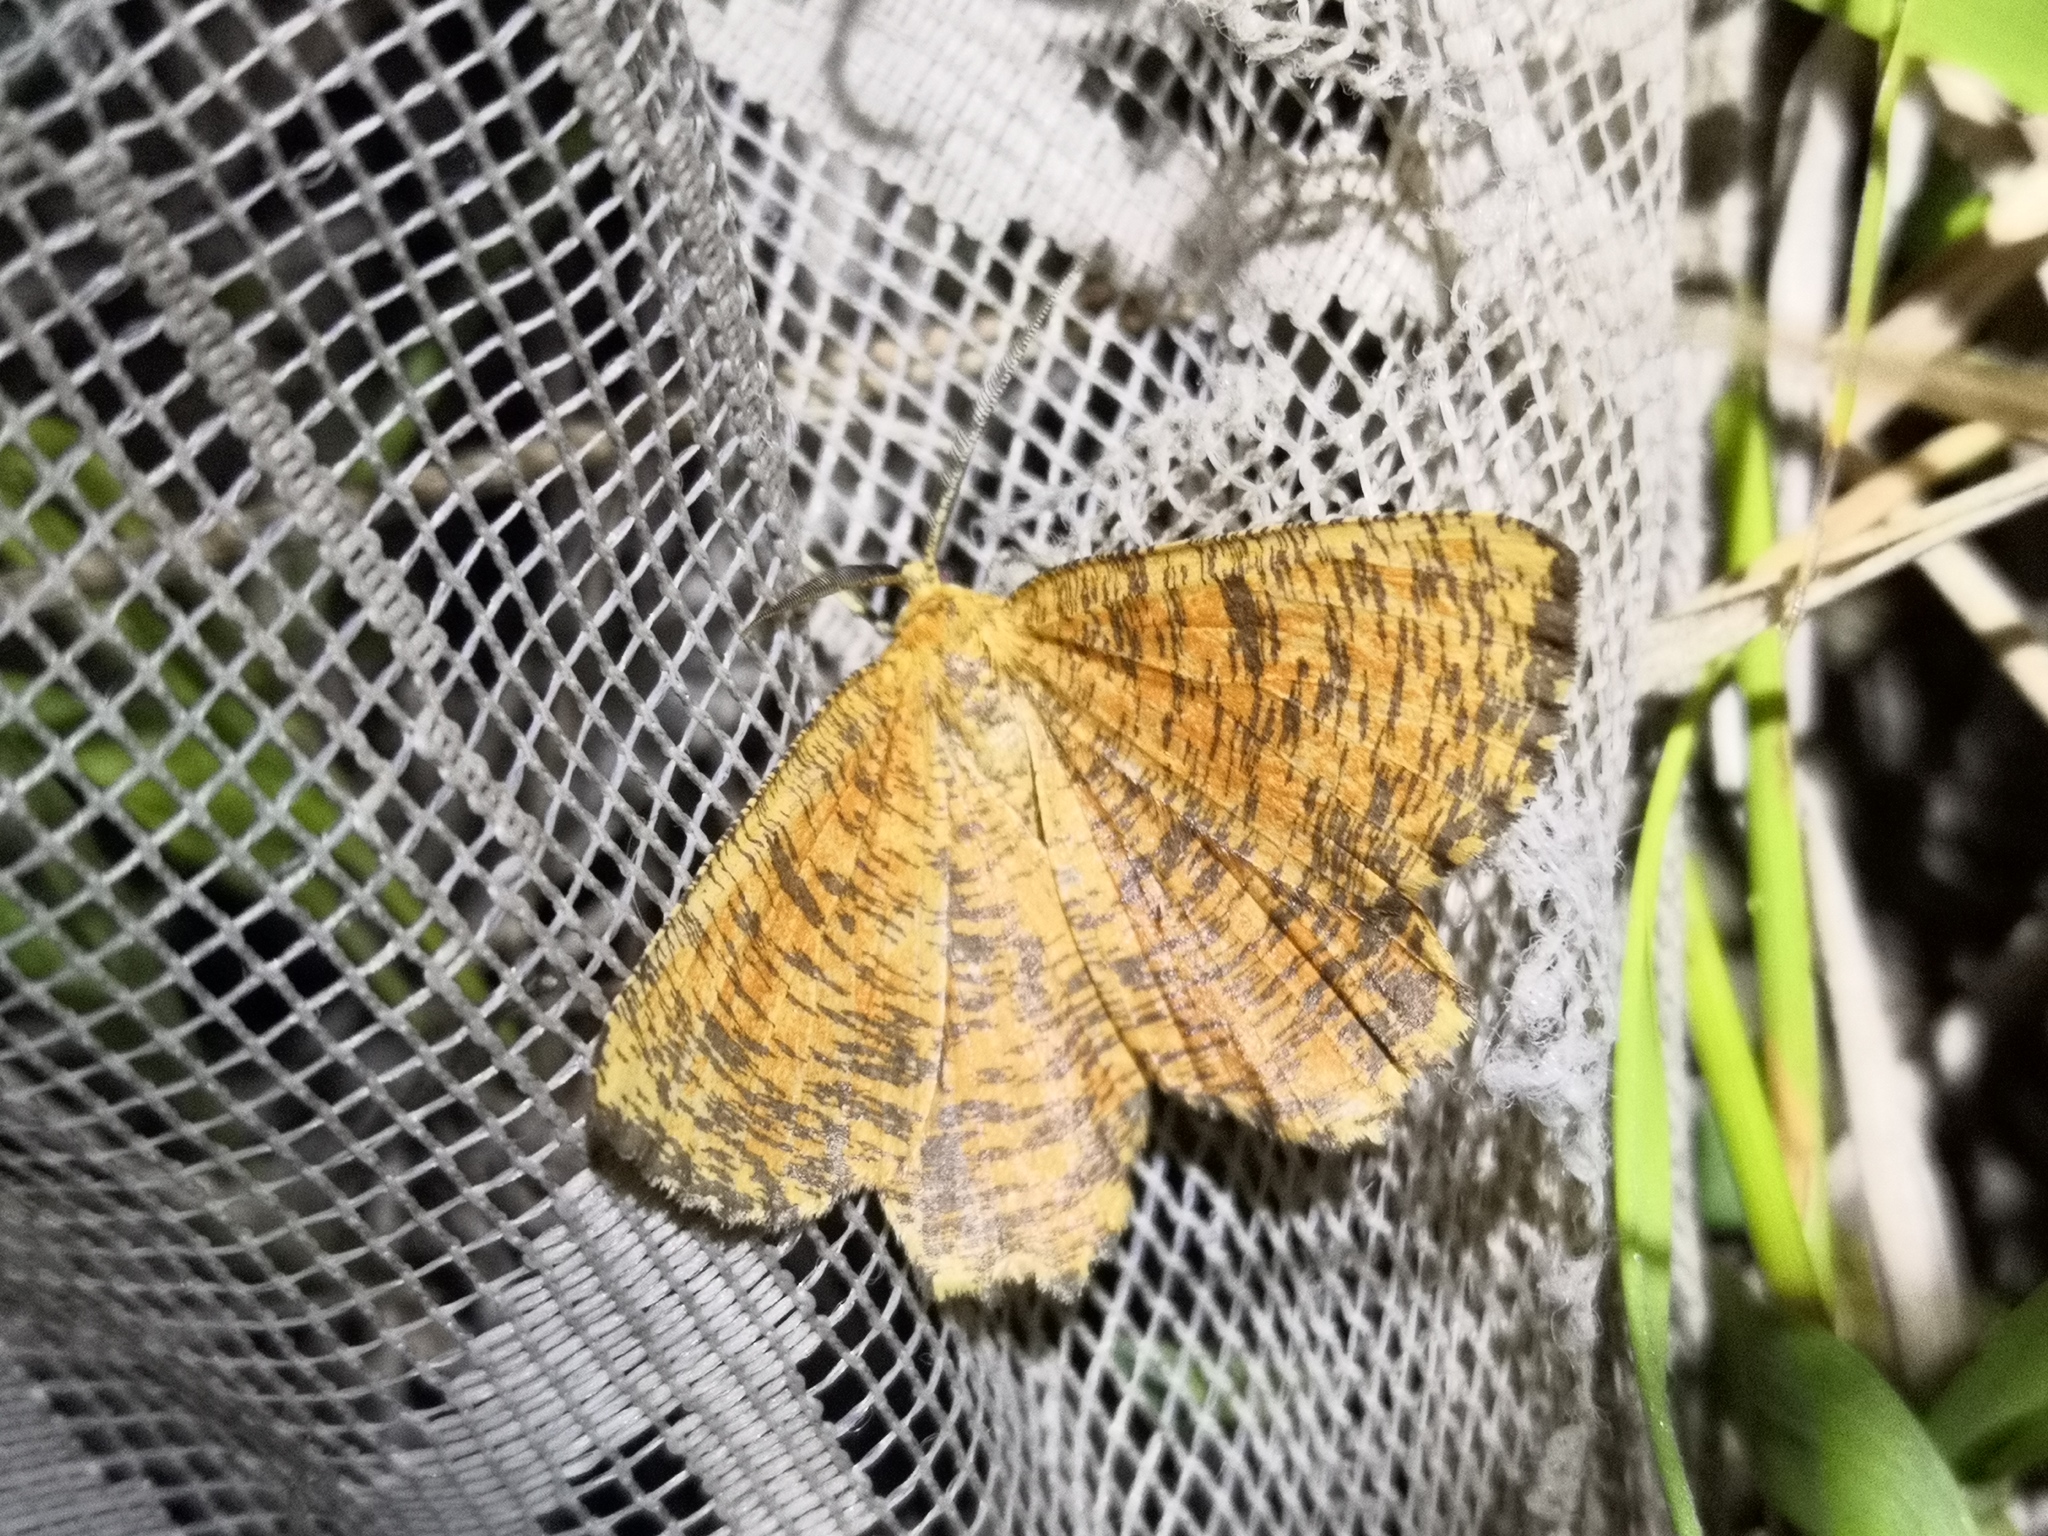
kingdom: Animalia
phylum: Arthropoda
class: Insecta
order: Lepidoptera
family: Geometridae
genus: Angerona
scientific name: Angerona prunaria
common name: Orange moth
